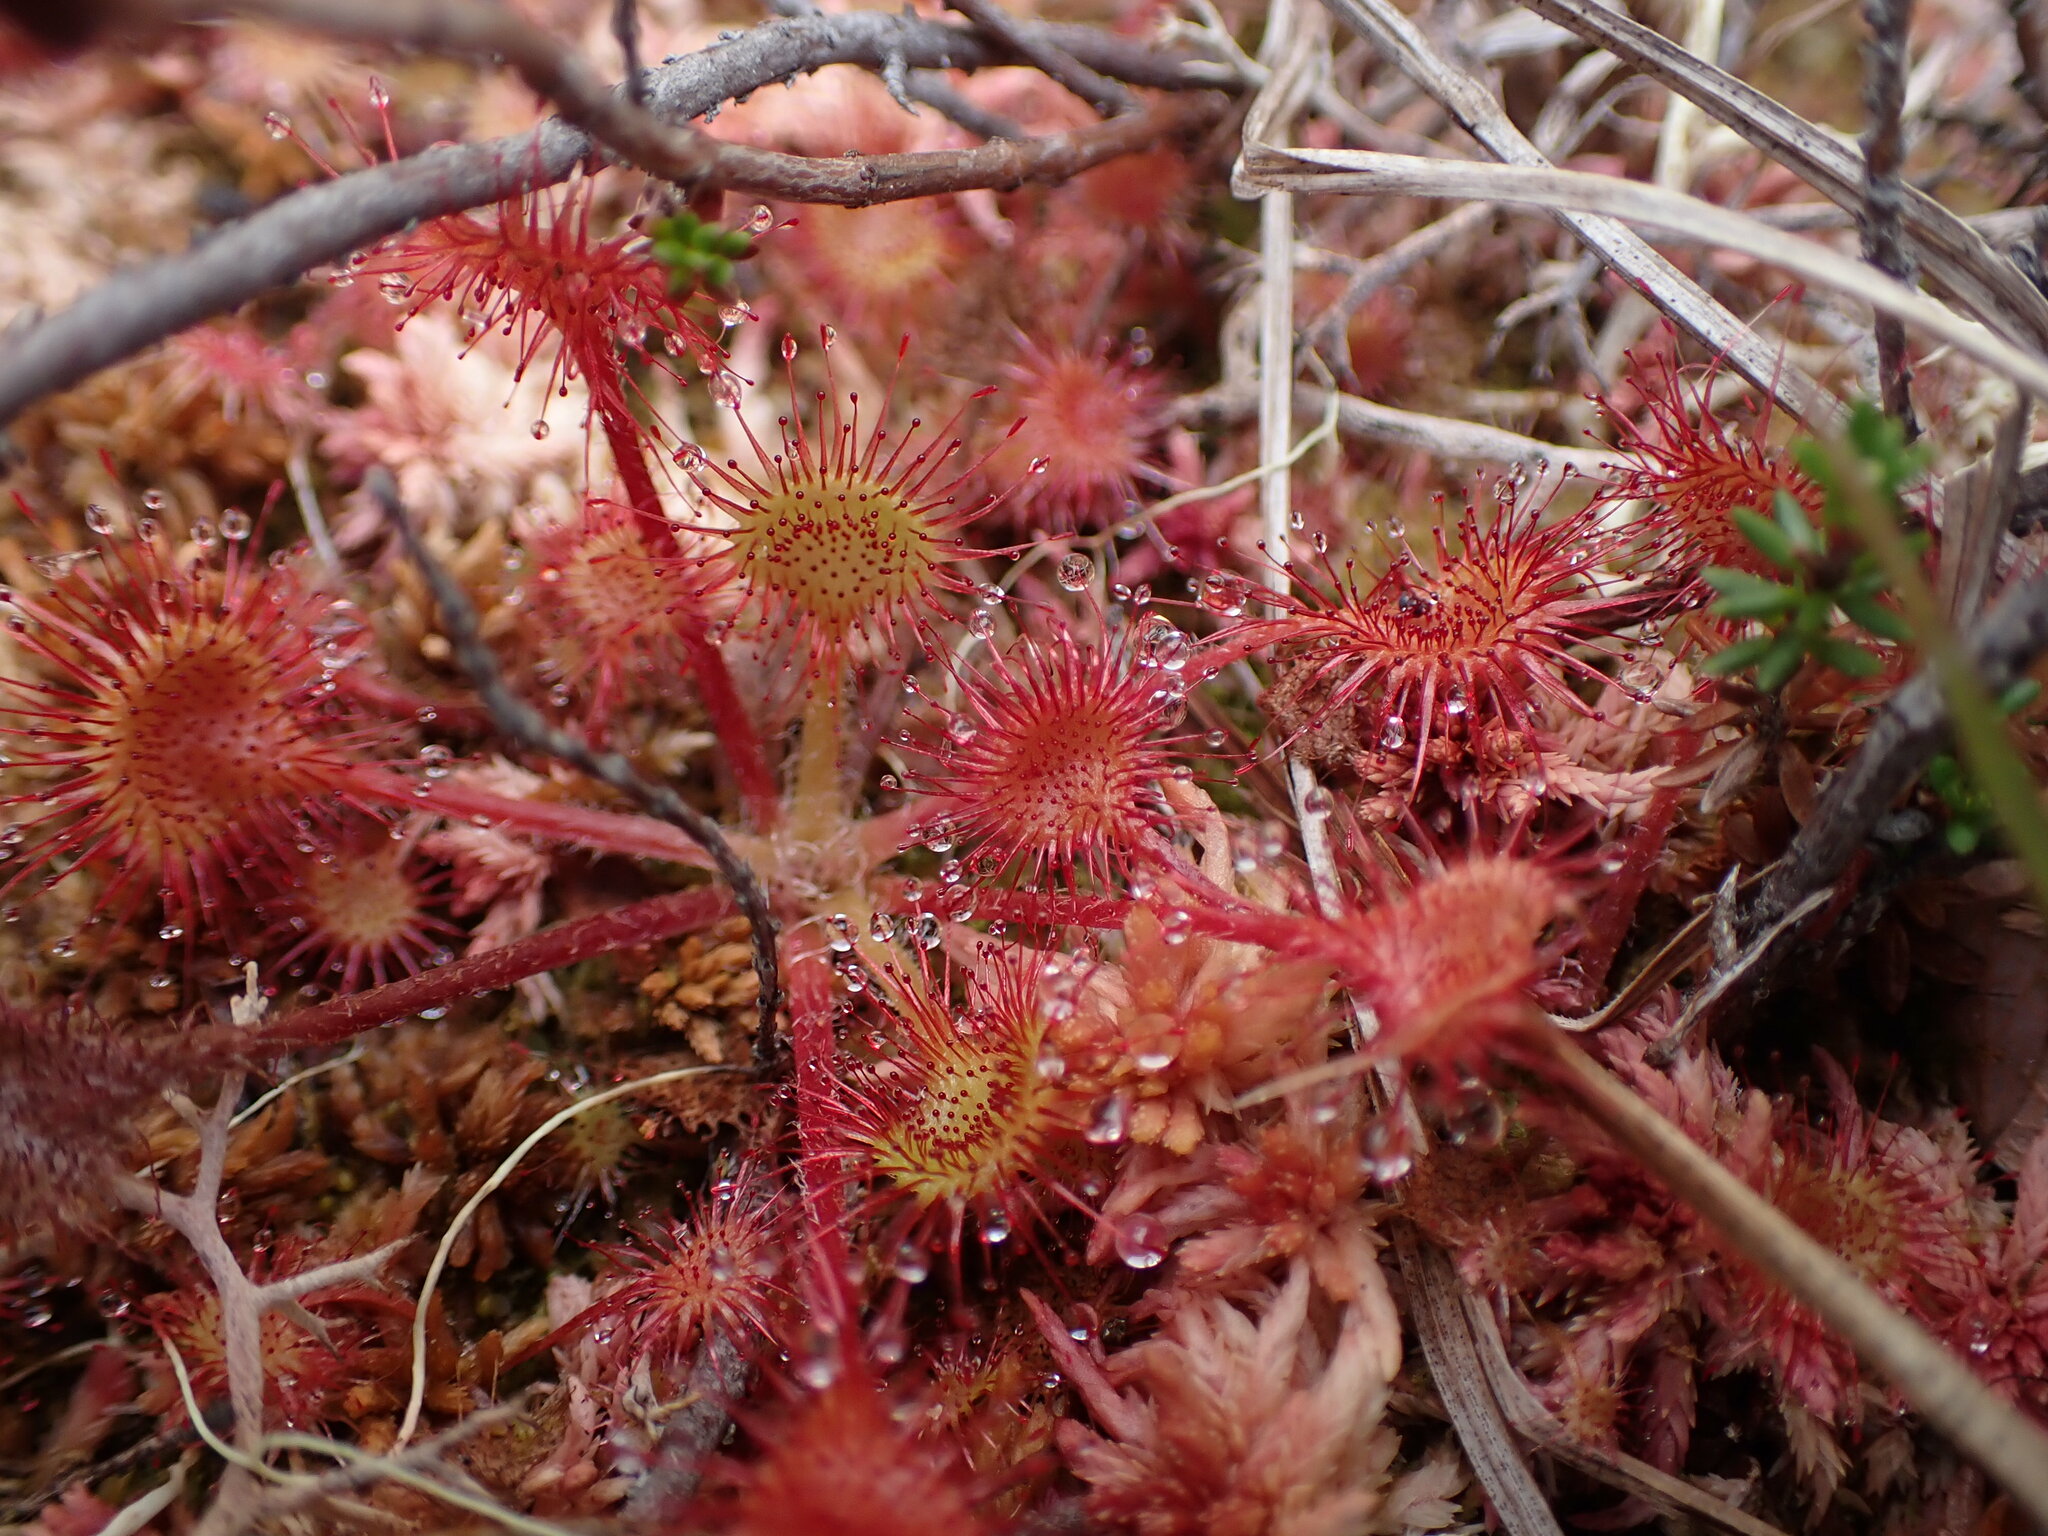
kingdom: Plantae
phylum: Tracheophyta
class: Magnoliopsida
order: Caryophyllales
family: Droseraceae
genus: Drosera
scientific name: Drosera rotundifolia
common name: Round-leaved sundew
